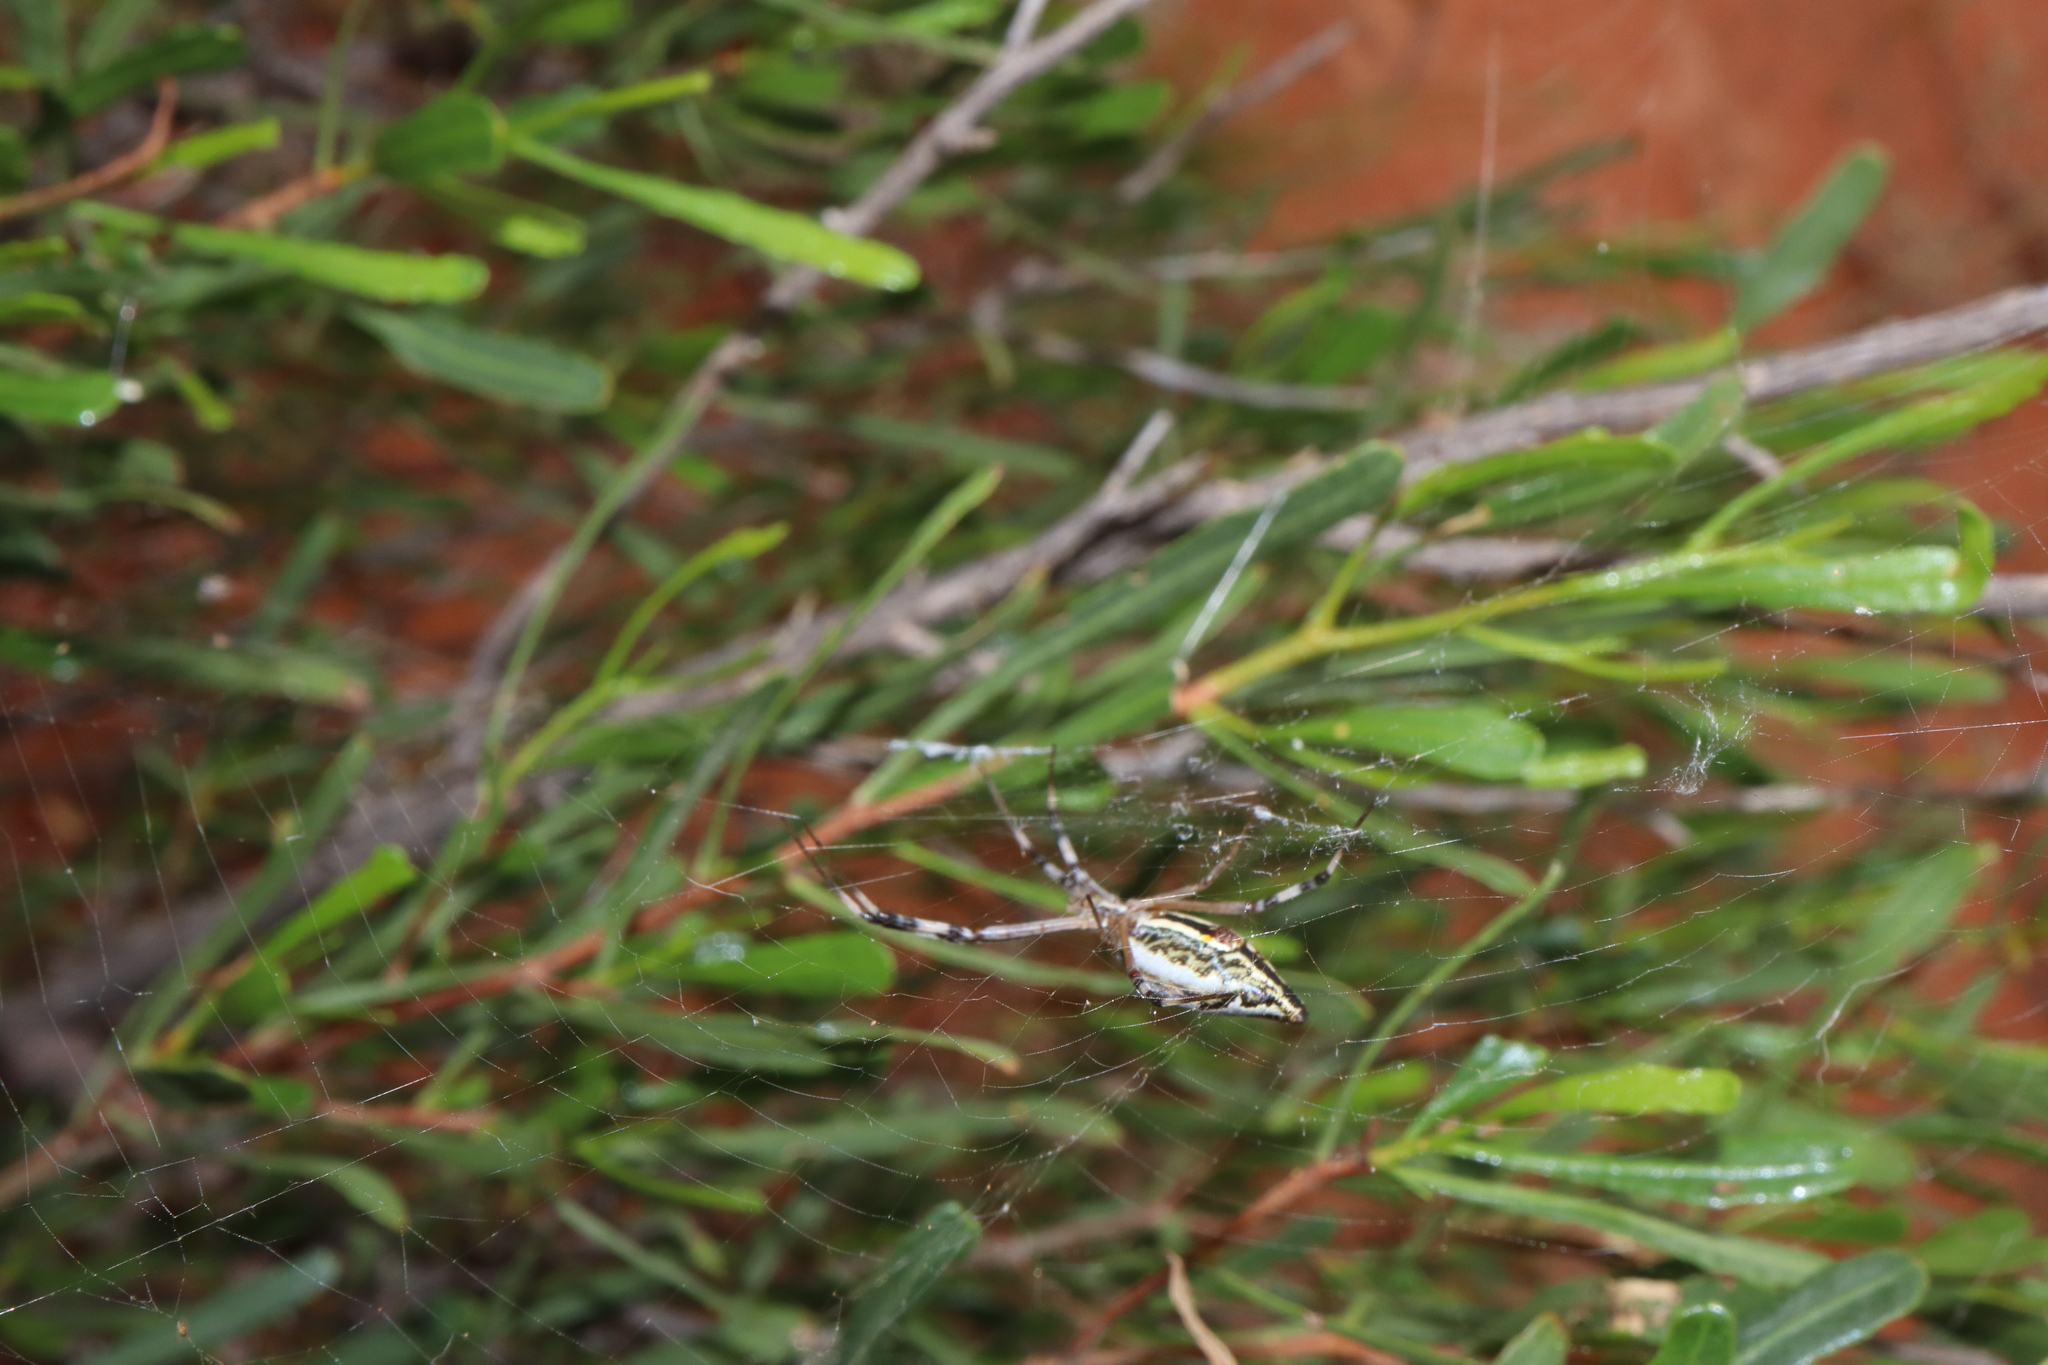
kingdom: Animalia
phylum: Arthropoda
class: Arachnida
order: Araneae
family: Araneidae
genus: Argiope
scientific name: Argiope protensa
